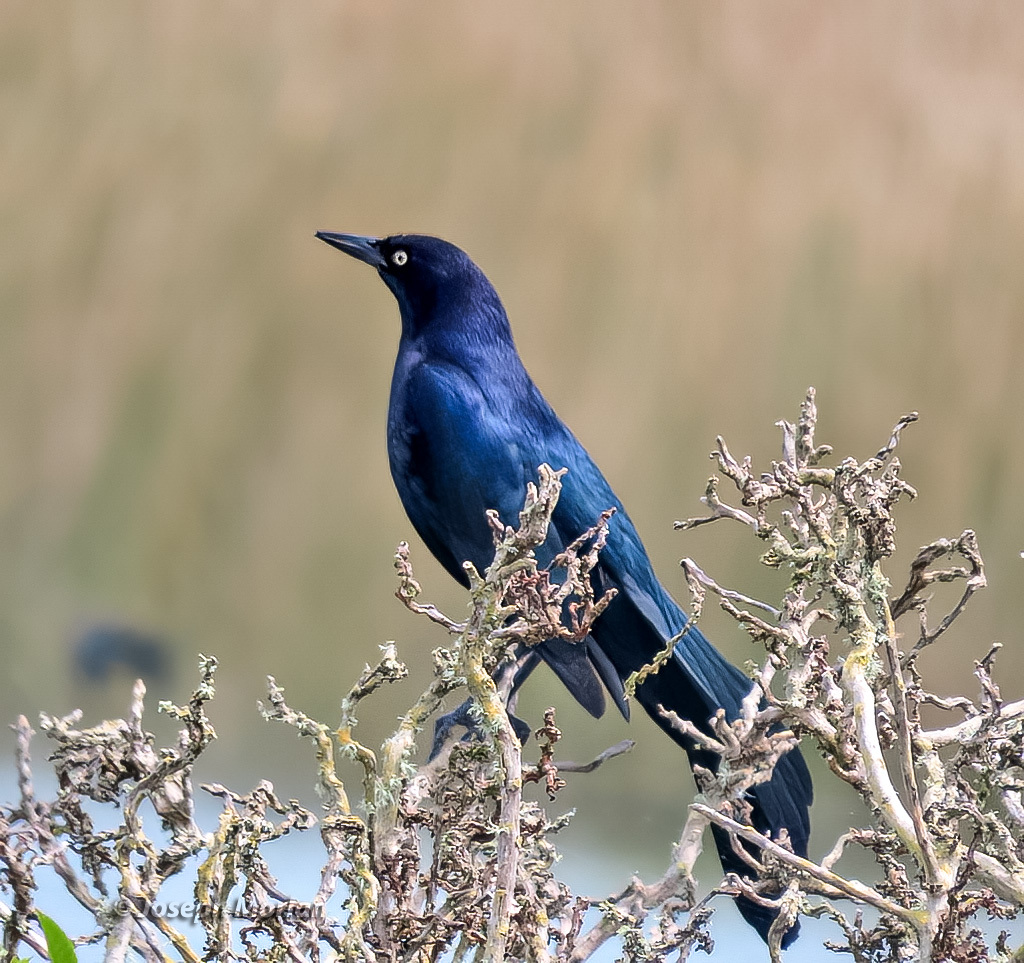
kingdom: Animalia
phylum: Chordata
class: Aves
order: Passeriformes
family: Icteridae
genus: Quiscalus
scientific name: Quiscalus mexicanus
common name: Great-tailed grackle
